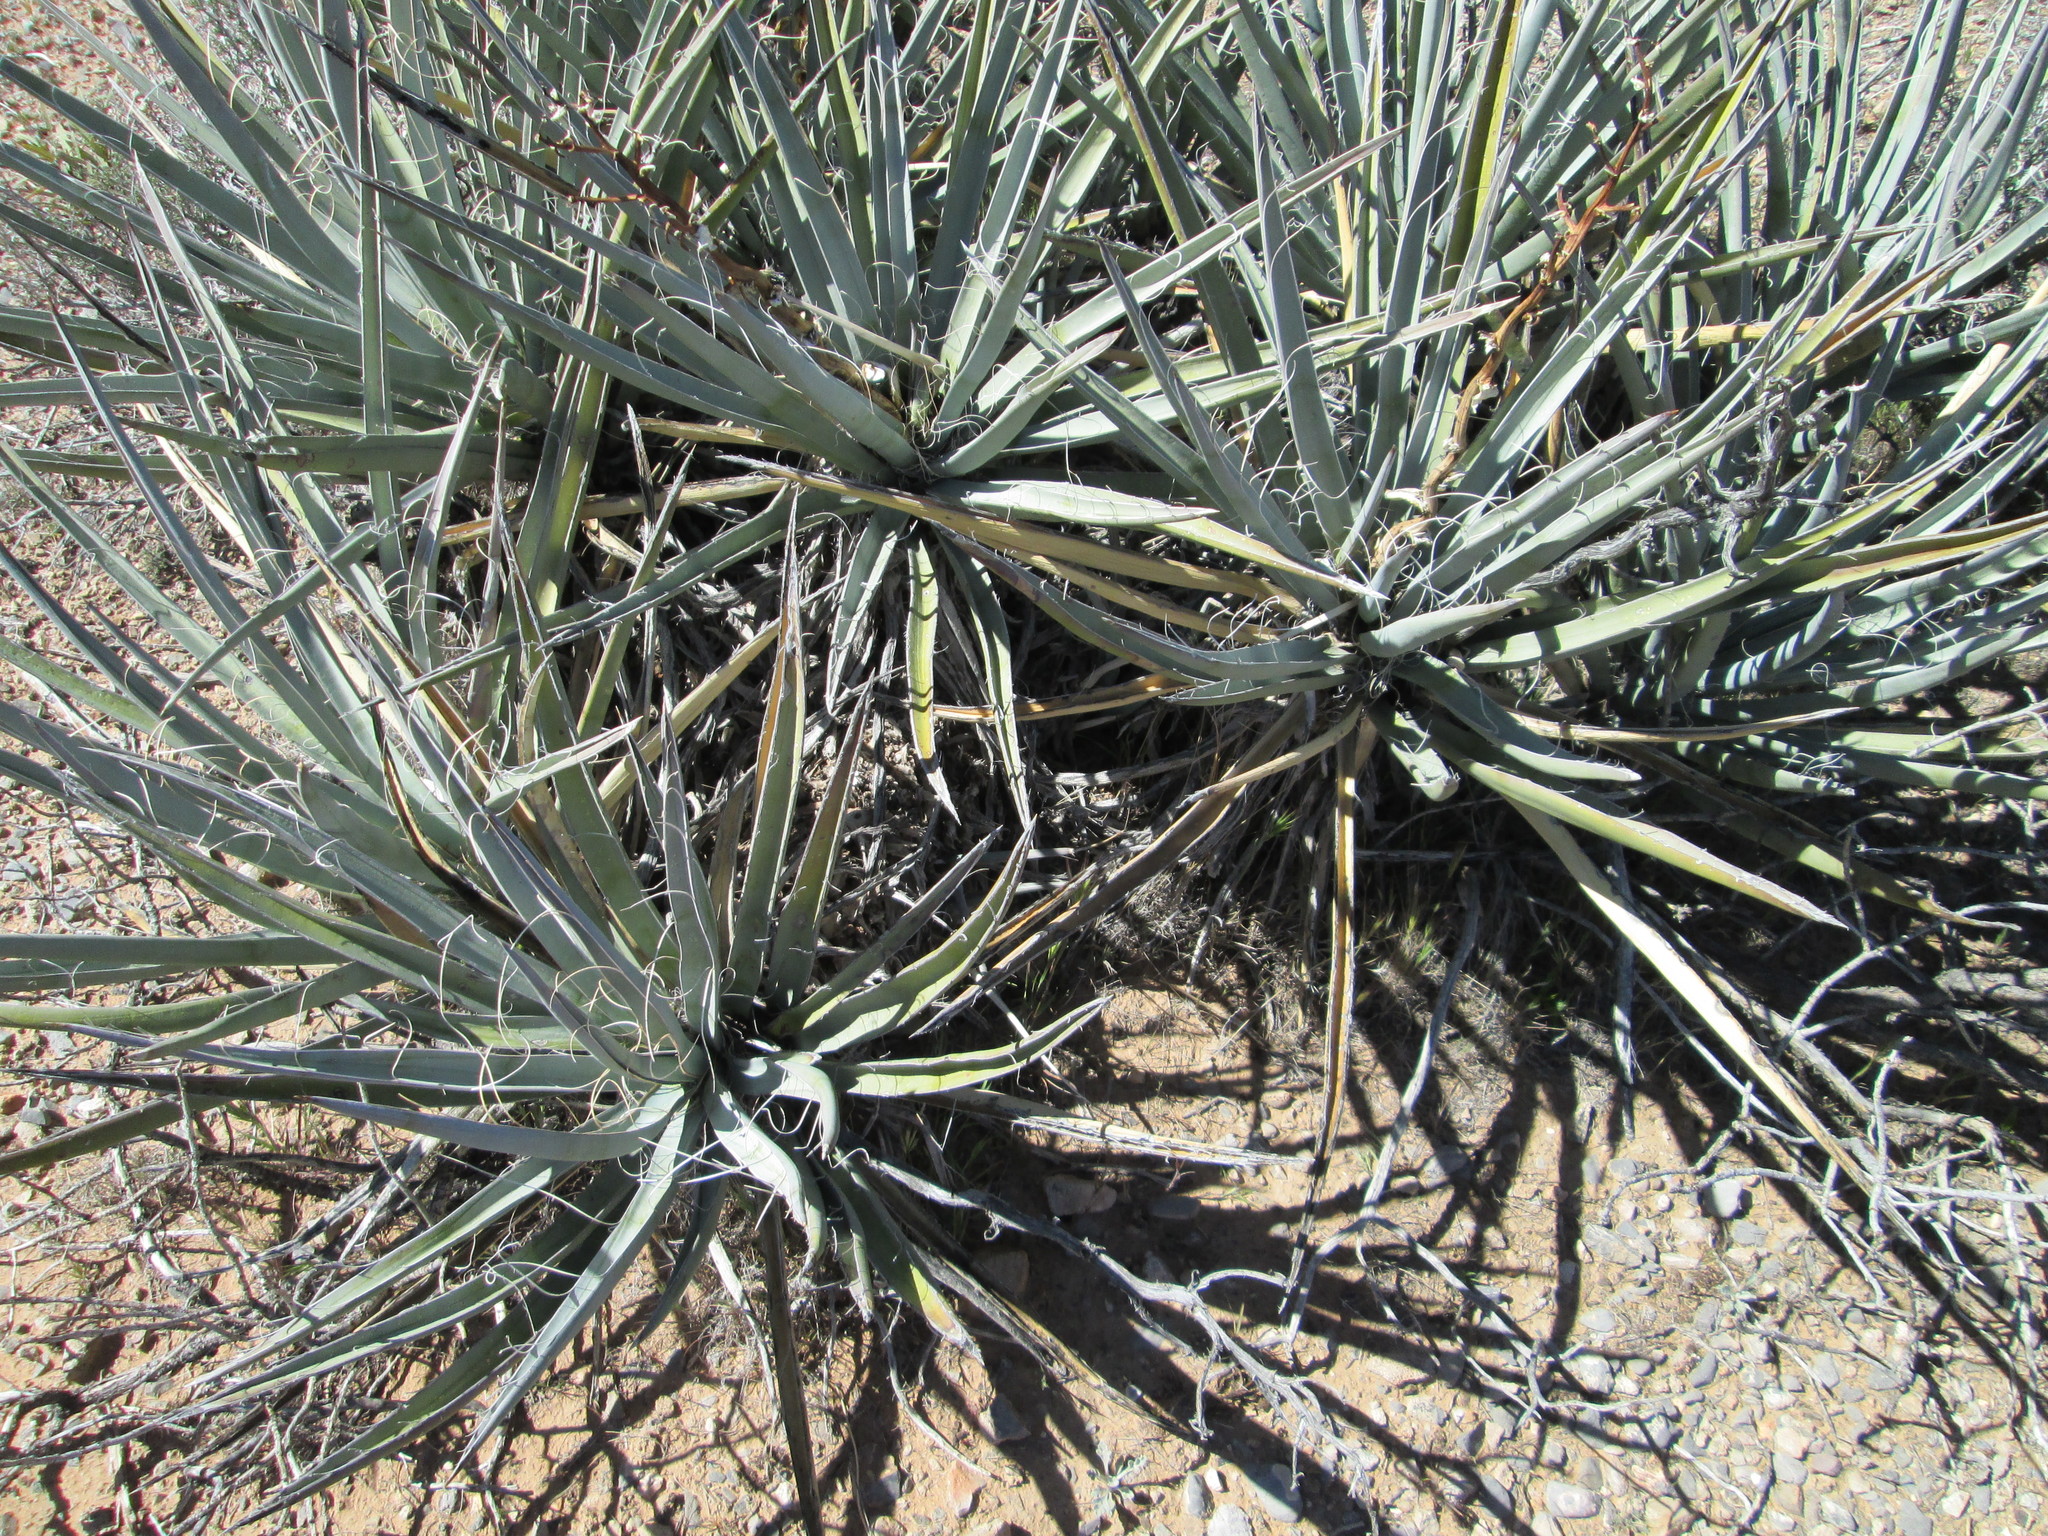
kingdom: Plantae
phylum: Tracheophyta
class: Liliopsida
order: Asparagales
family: Asparagaceae
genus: Yucca
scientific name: Yucca baccata
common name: Banana yucca
